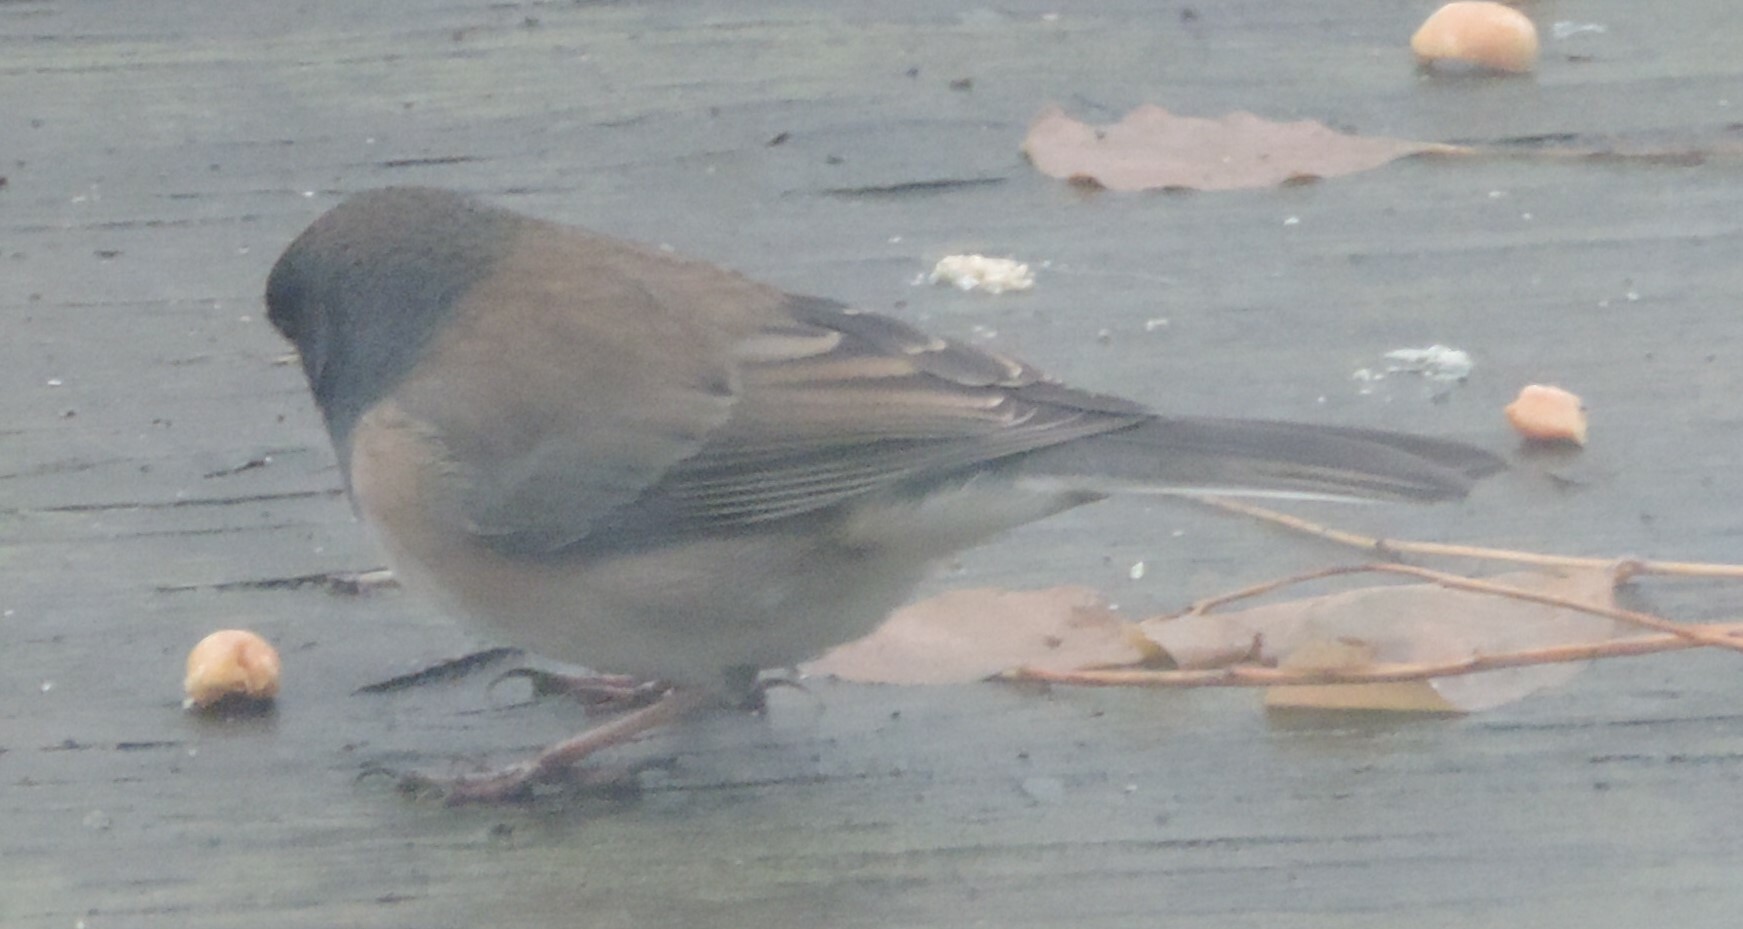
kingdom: Animalia
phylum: Chordata
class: Aves
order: Passeriformes
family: Passerellidae
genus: Junco
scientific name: Junco hyemalis
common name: Dark-eyed junco
